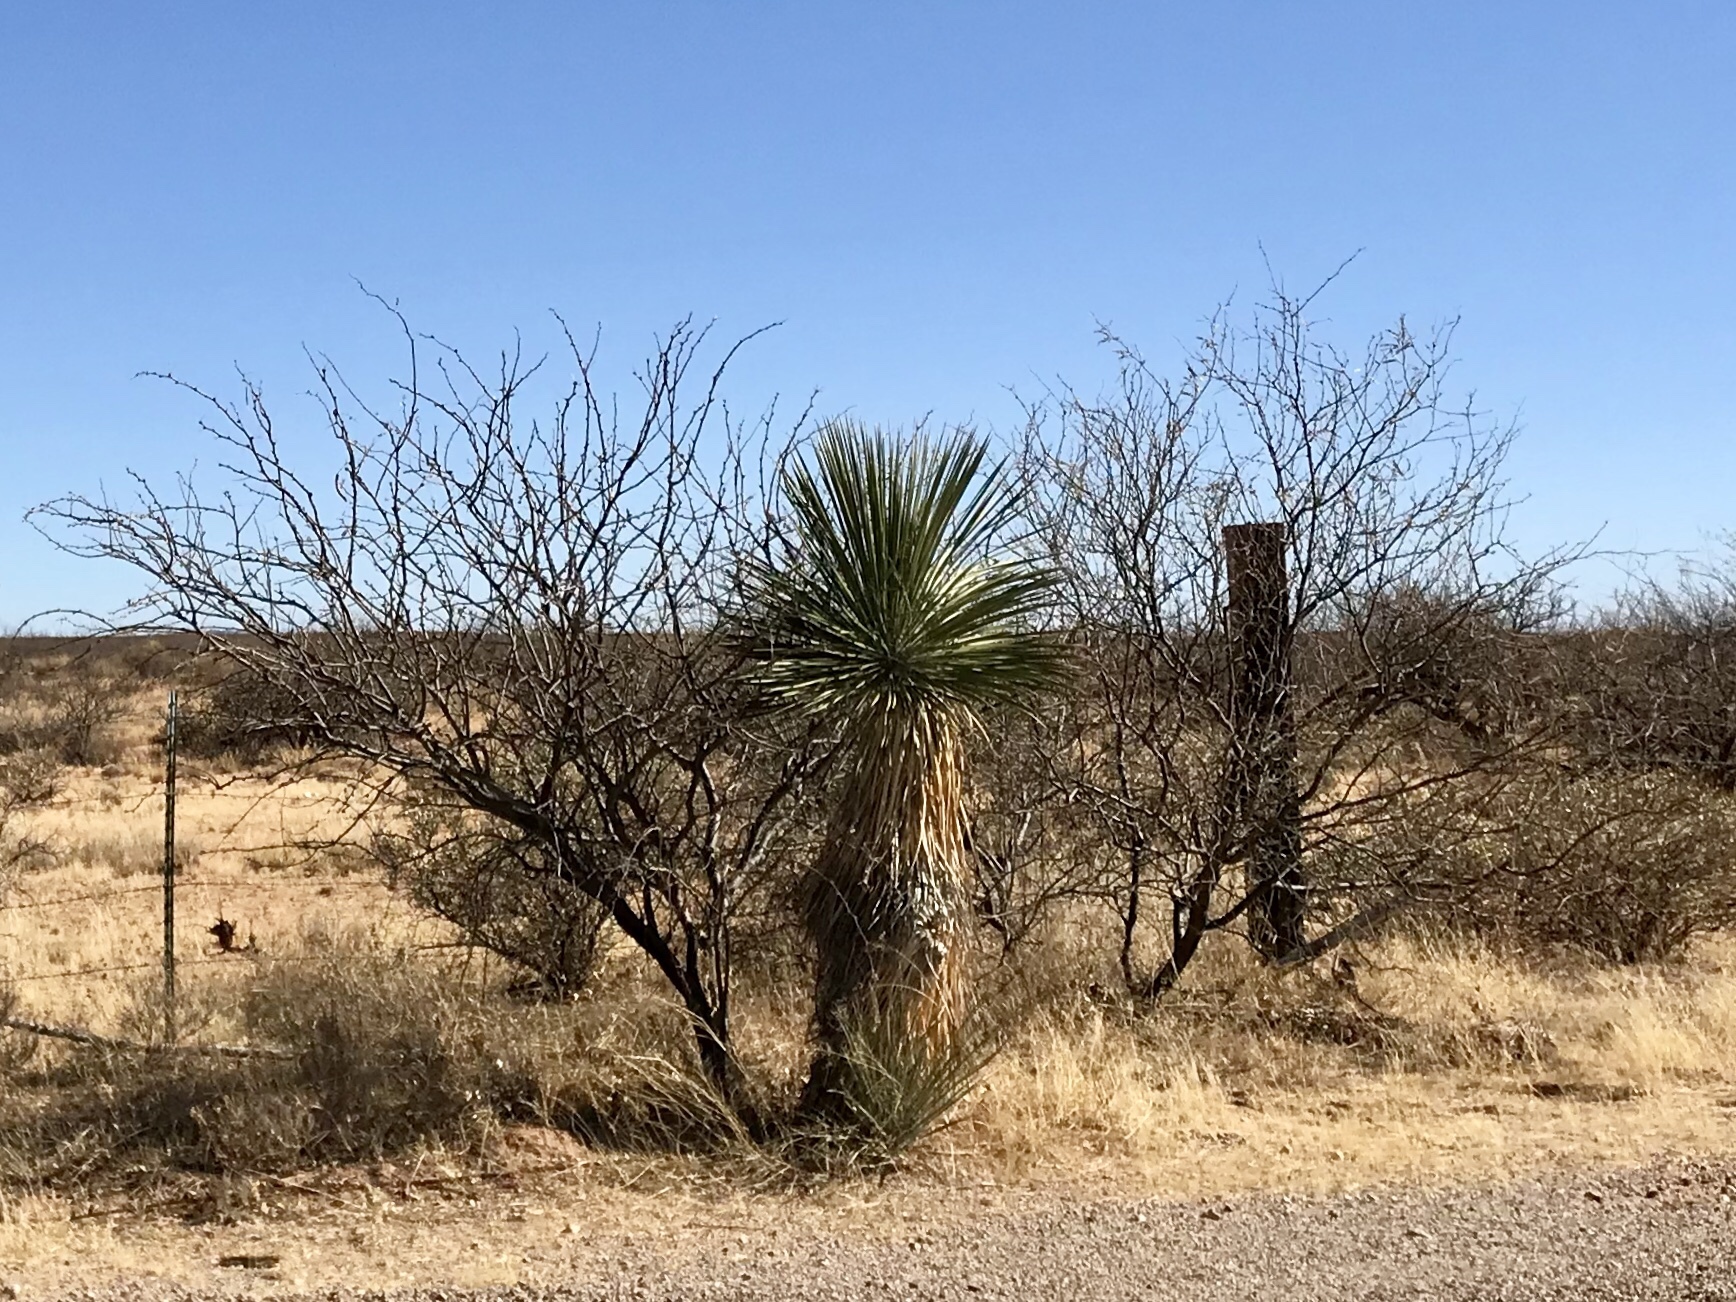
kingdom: Plantae
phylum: Tracheophyta
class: Liliopsida
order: Asparagales
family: Asparagaceae
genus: Yucca
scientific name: Yucca elata
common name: Palmella
